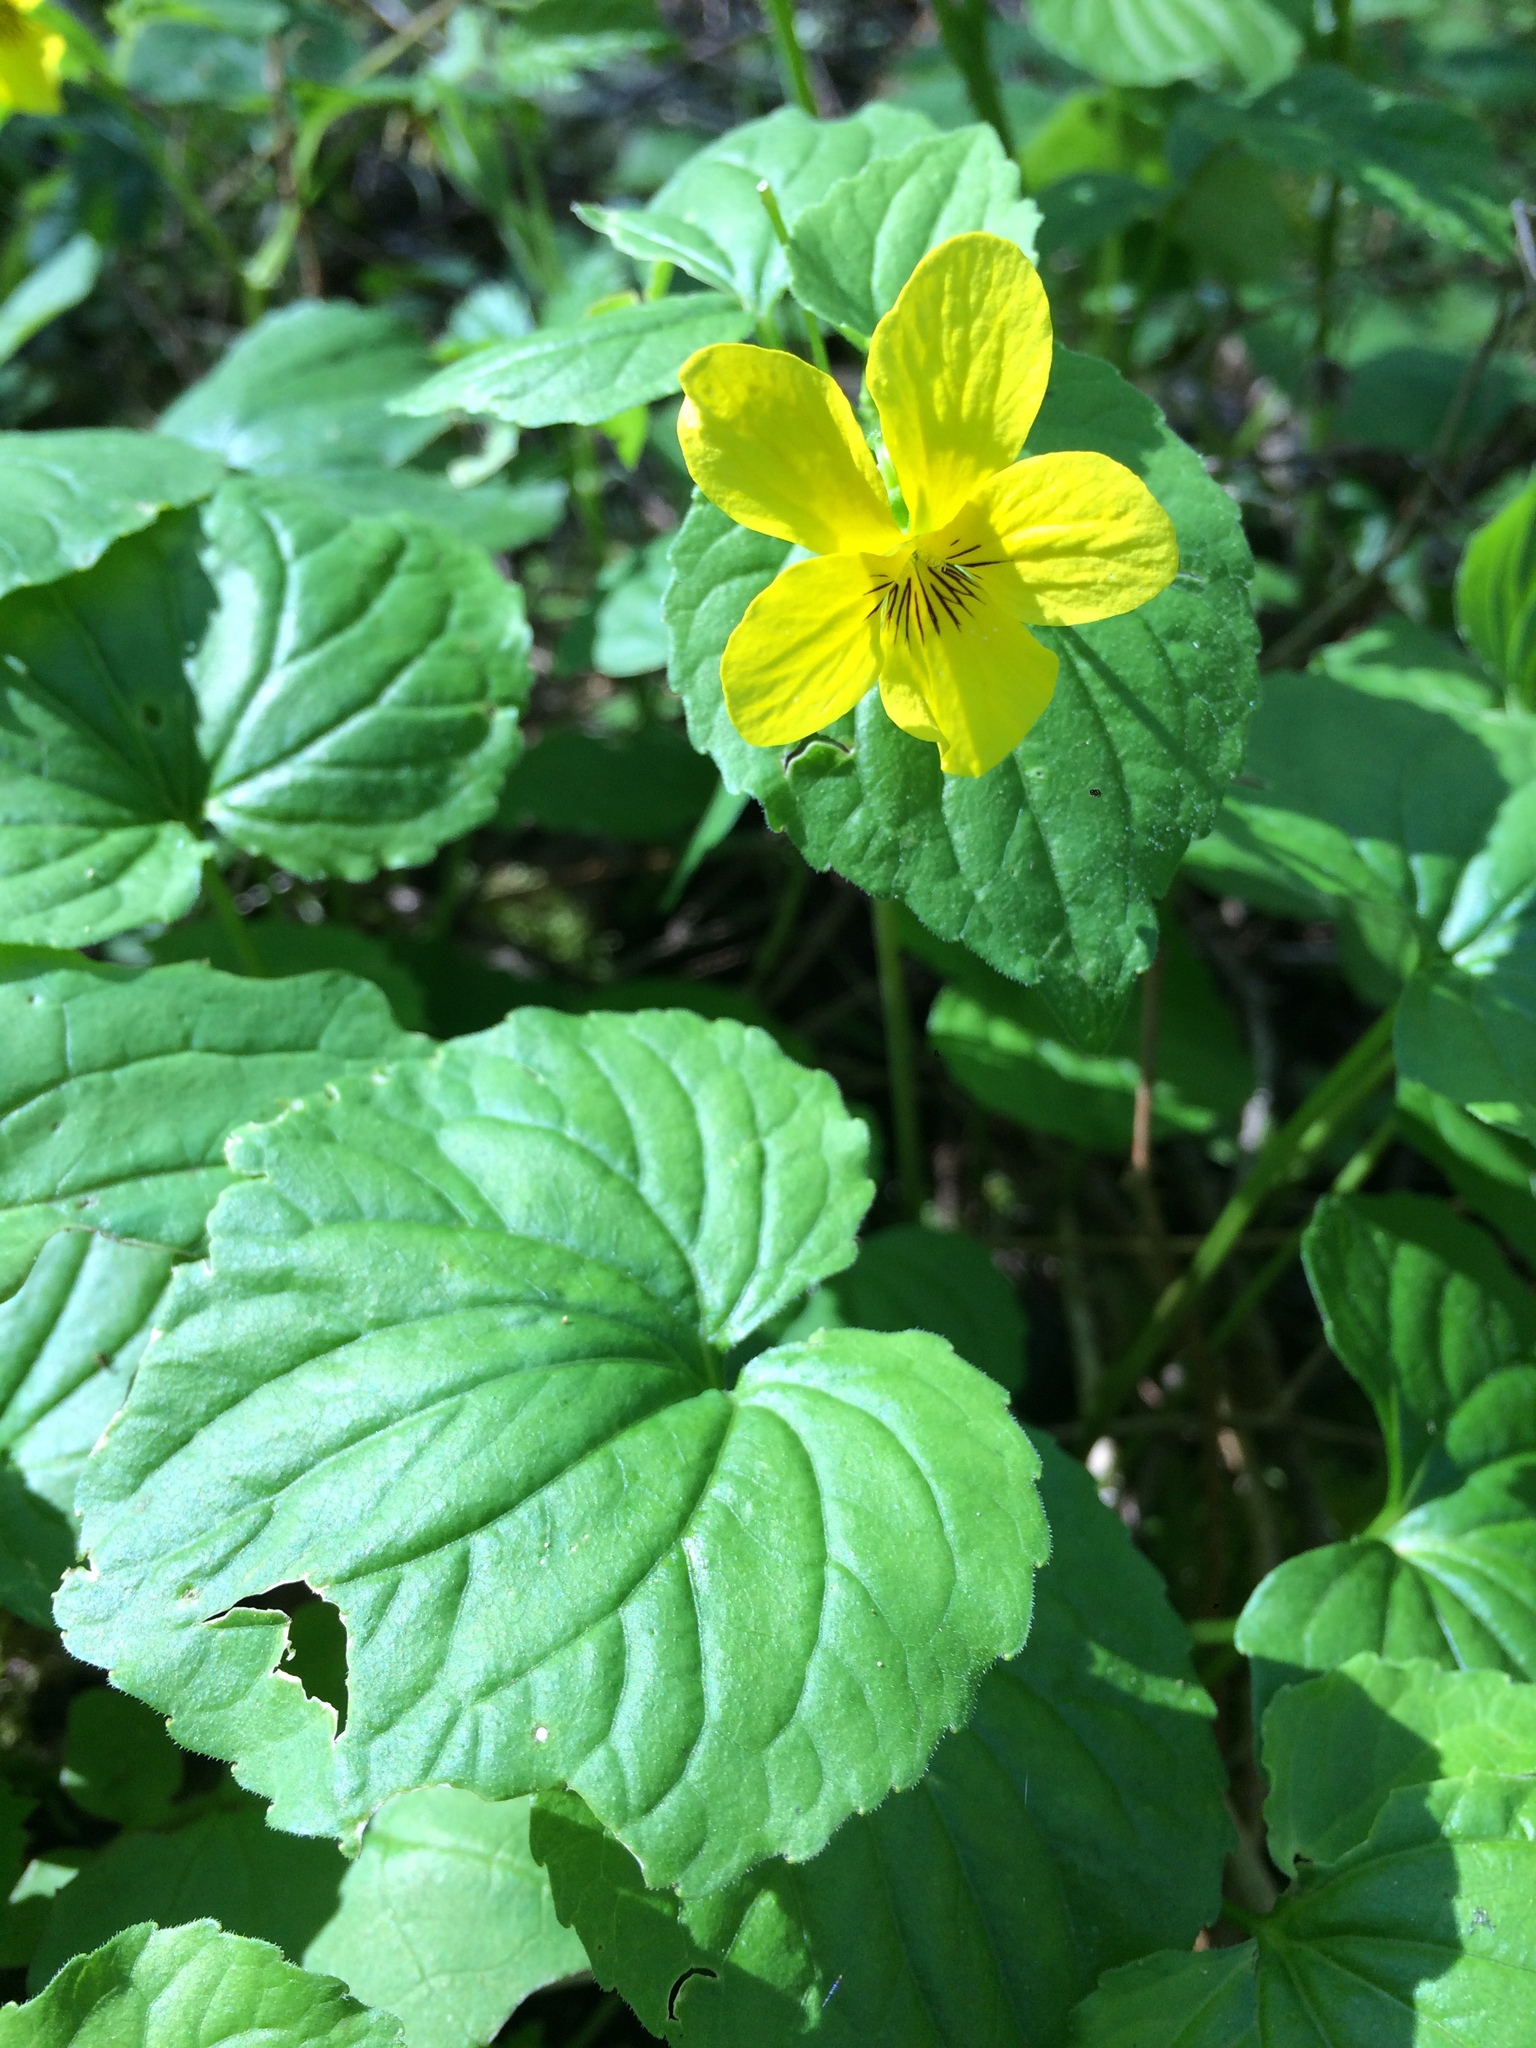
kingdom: Plantae
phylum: Tracheophyta
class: Magnoliopsida
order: Malpighiales
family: Violaceae
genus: Viola
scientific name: Viola glabella
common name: Stream violet
